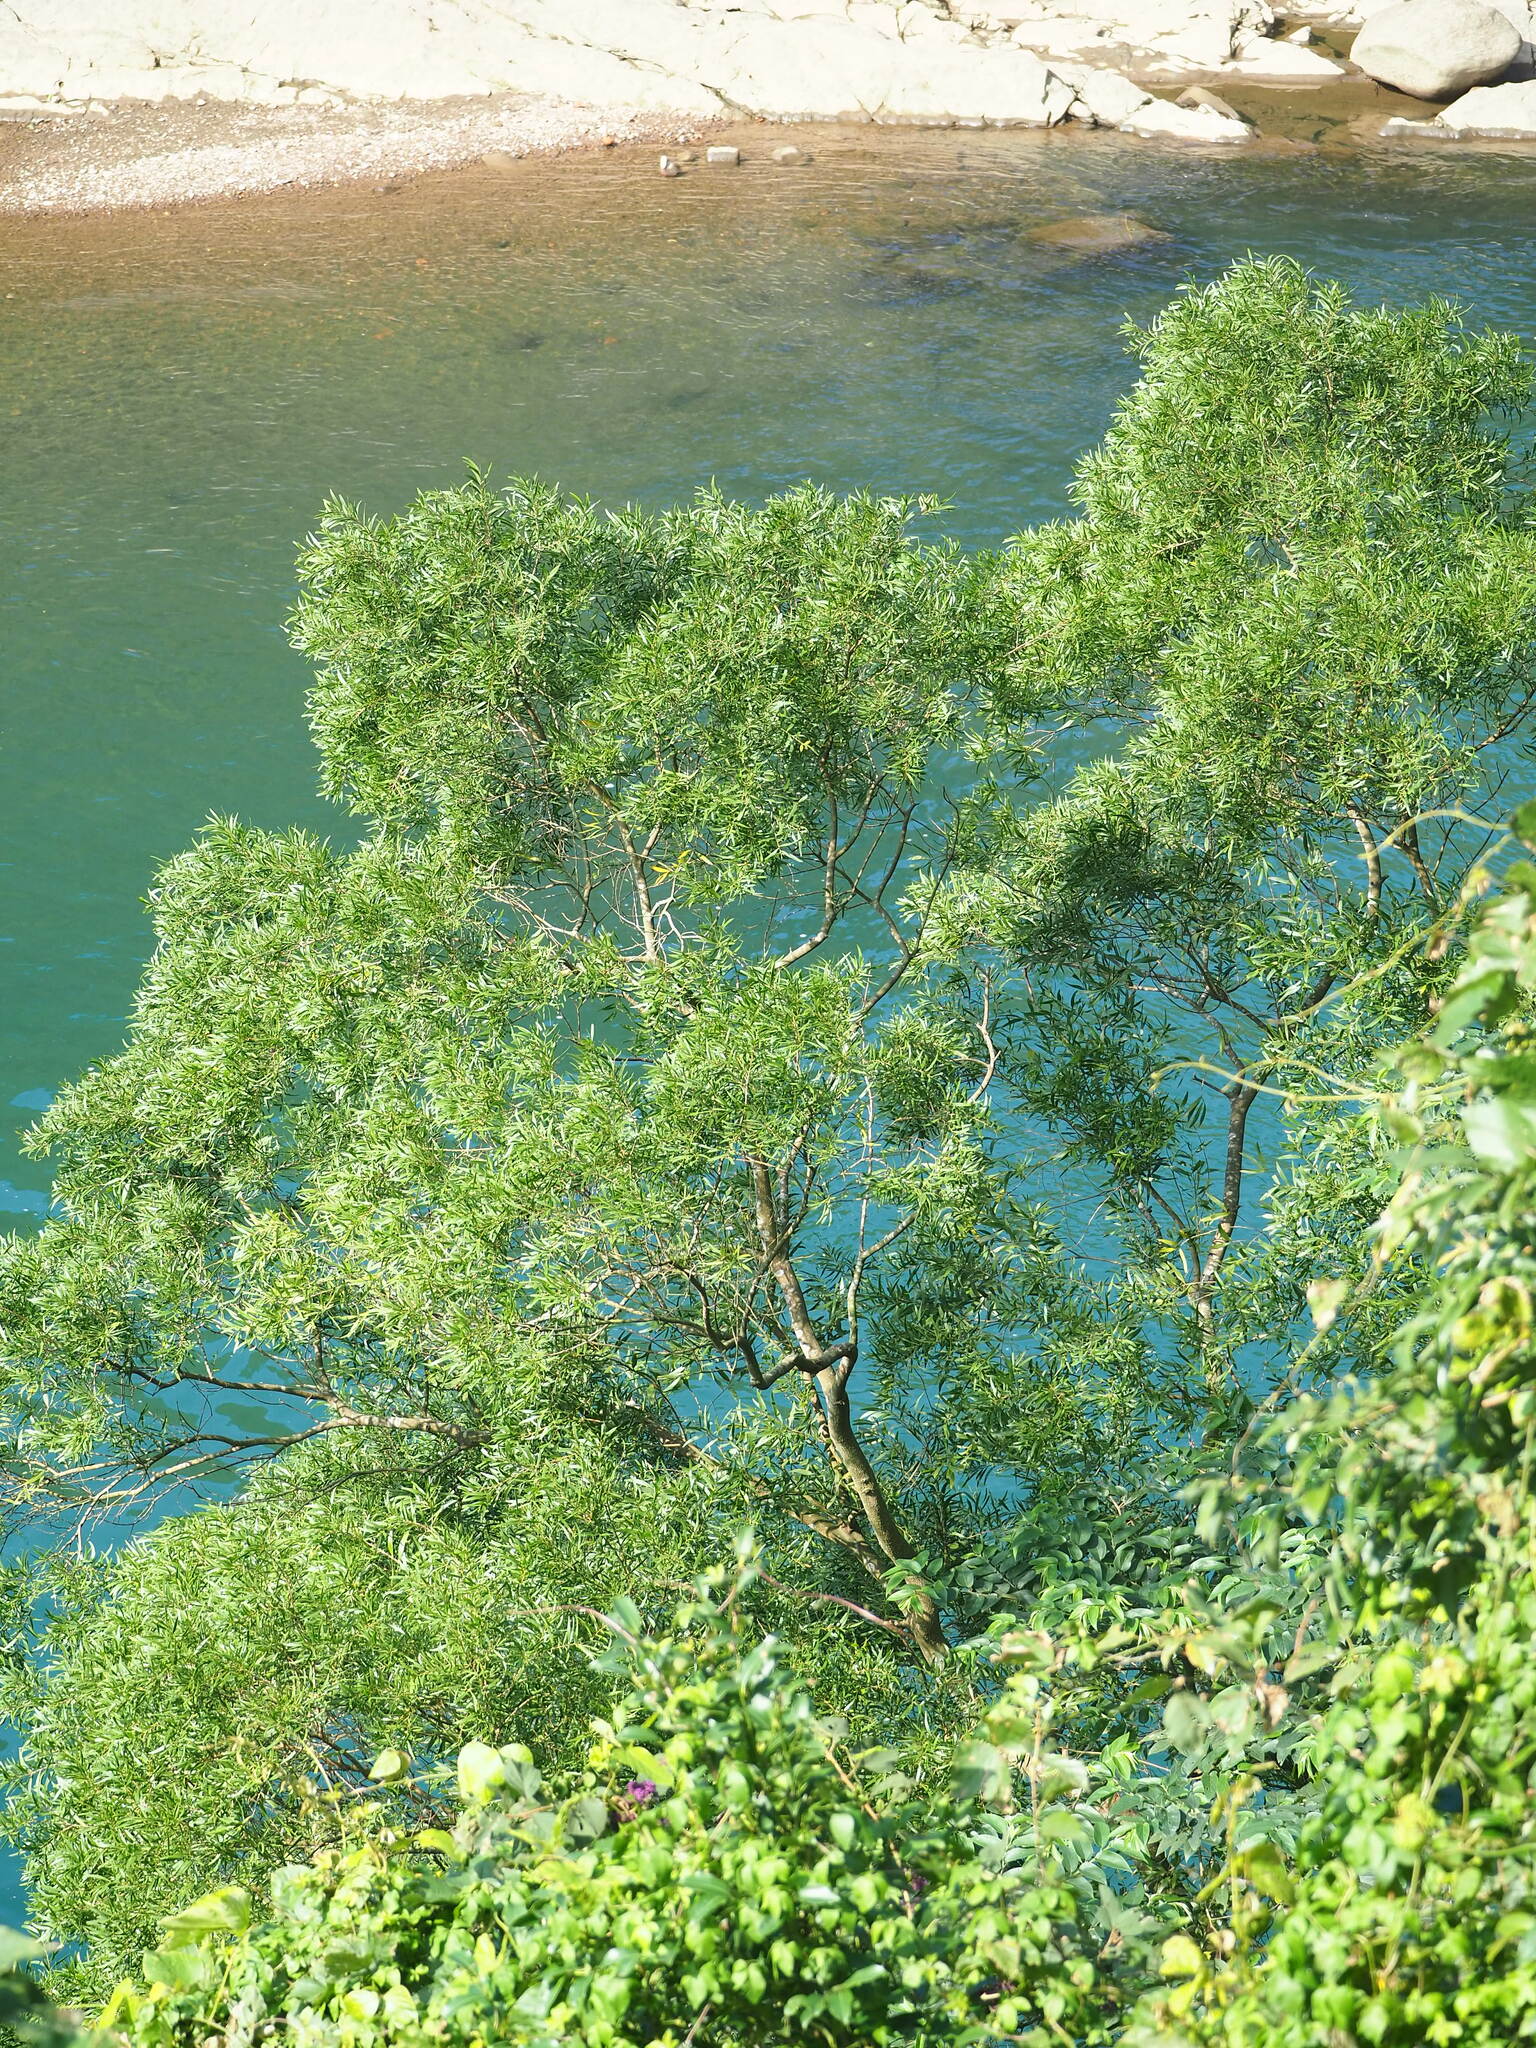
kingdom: Plantae
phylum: Tracheophyta
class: Magnoliopsida
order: Fabales
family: Fabaceae
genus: Acacia
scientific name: Acacia confusa
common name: Formosan koa
